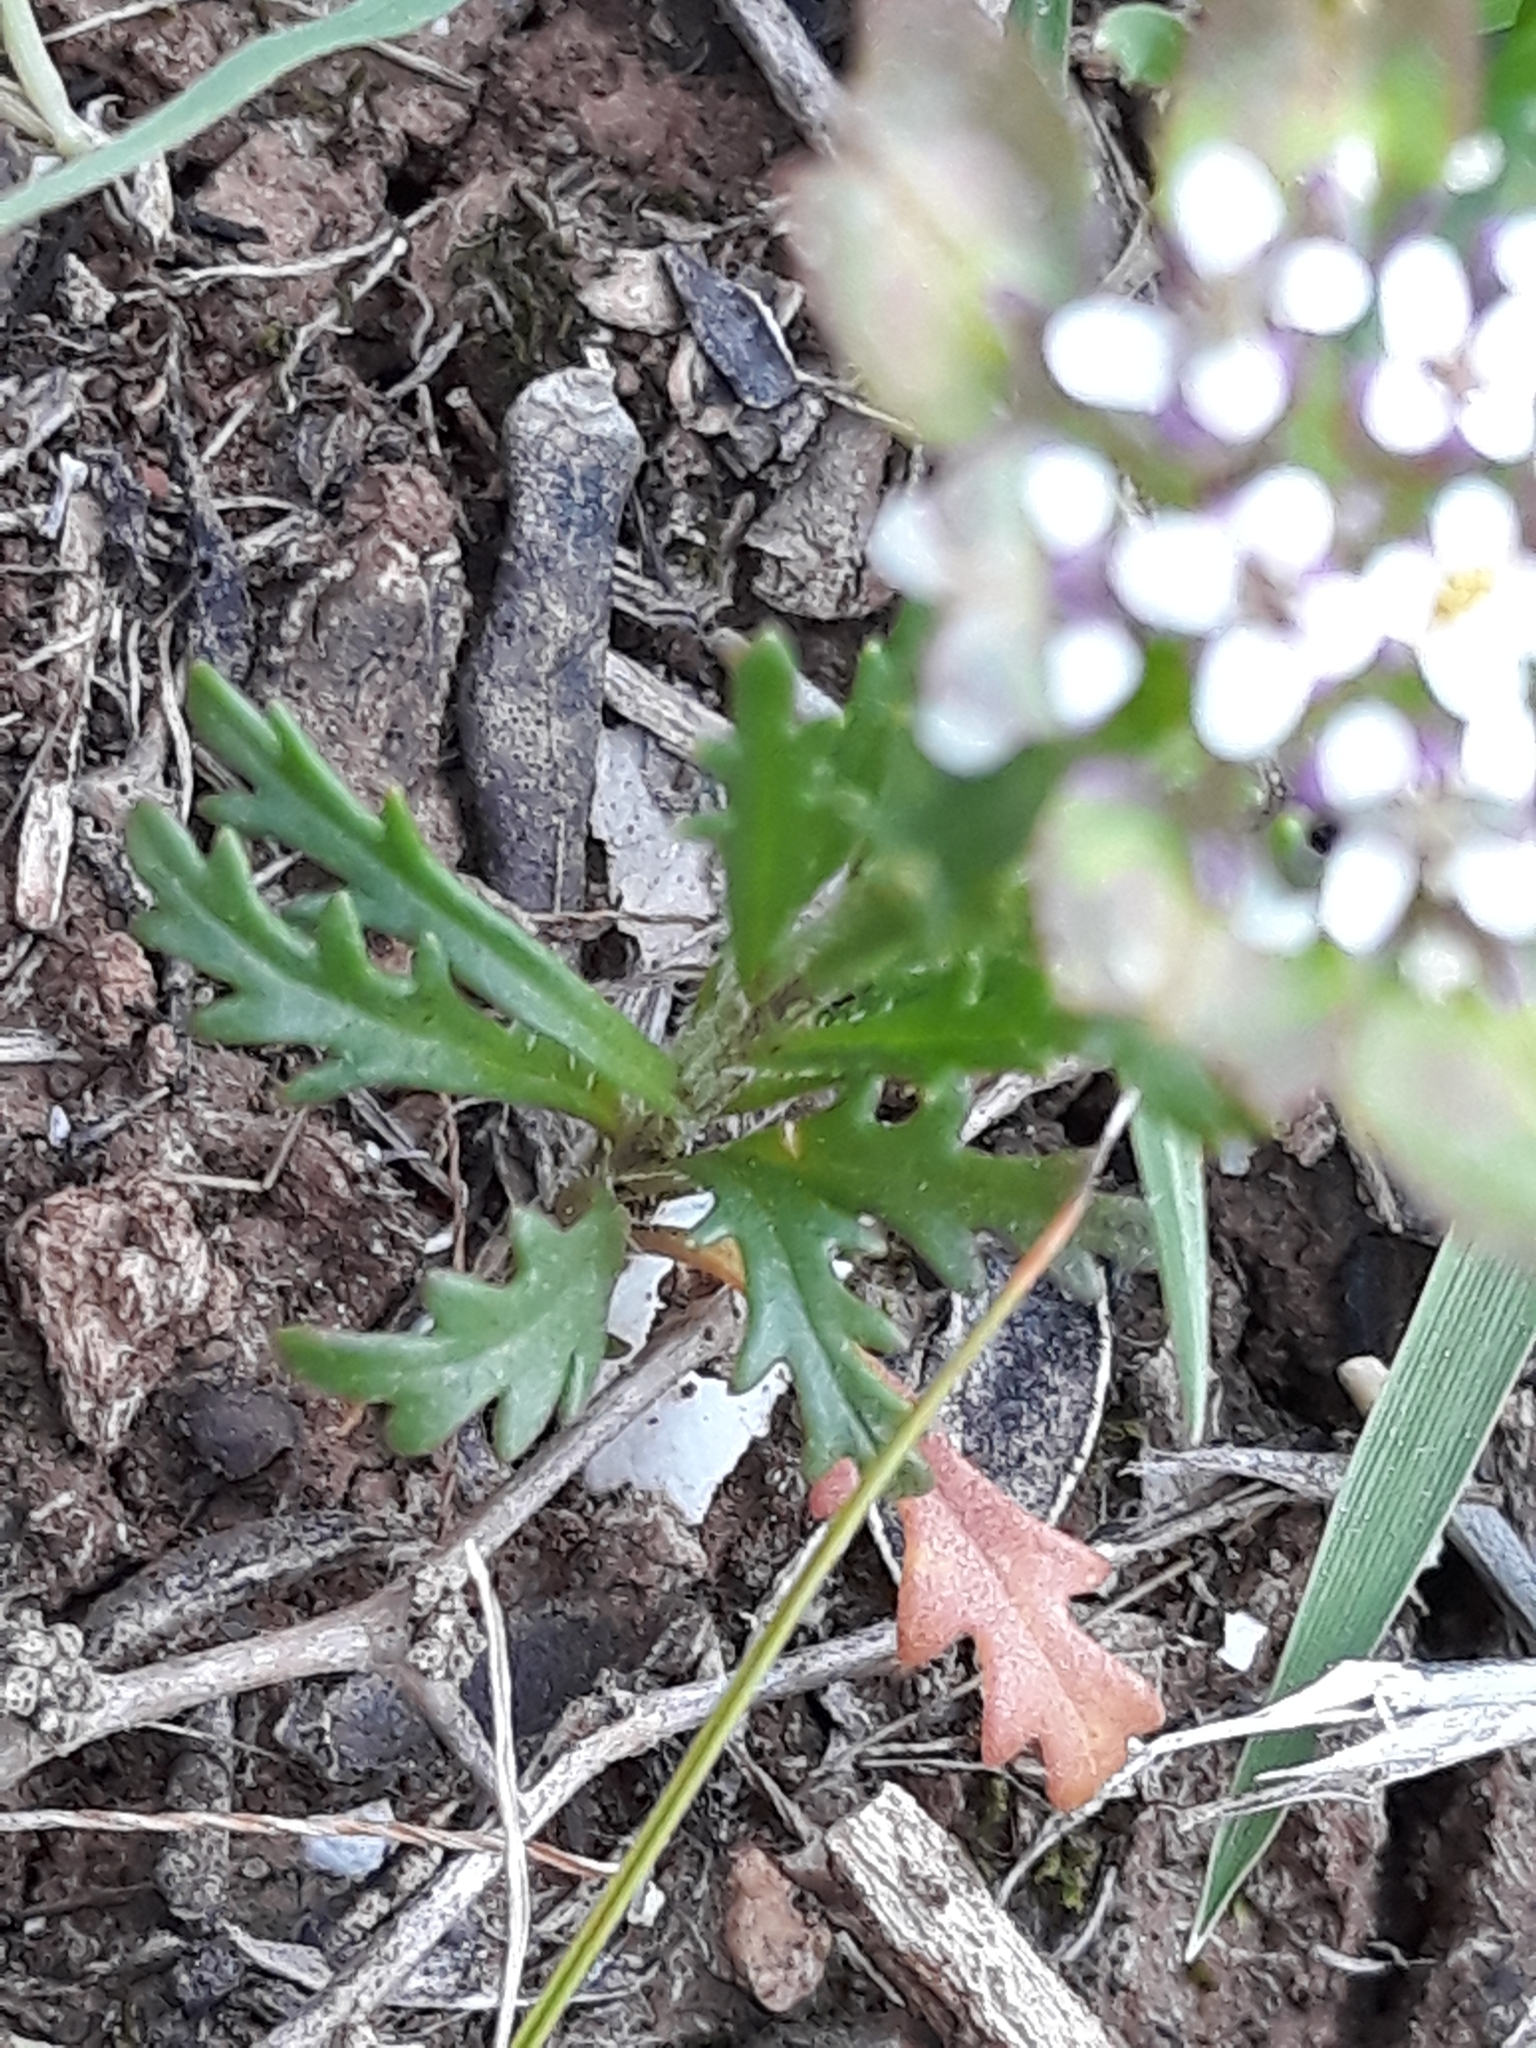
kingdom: Plantae
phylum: Tracheophyta
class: Magnoliopsida
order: Brassicales
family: Brassicaceae
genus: Iberis
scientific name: Iberis odorata
